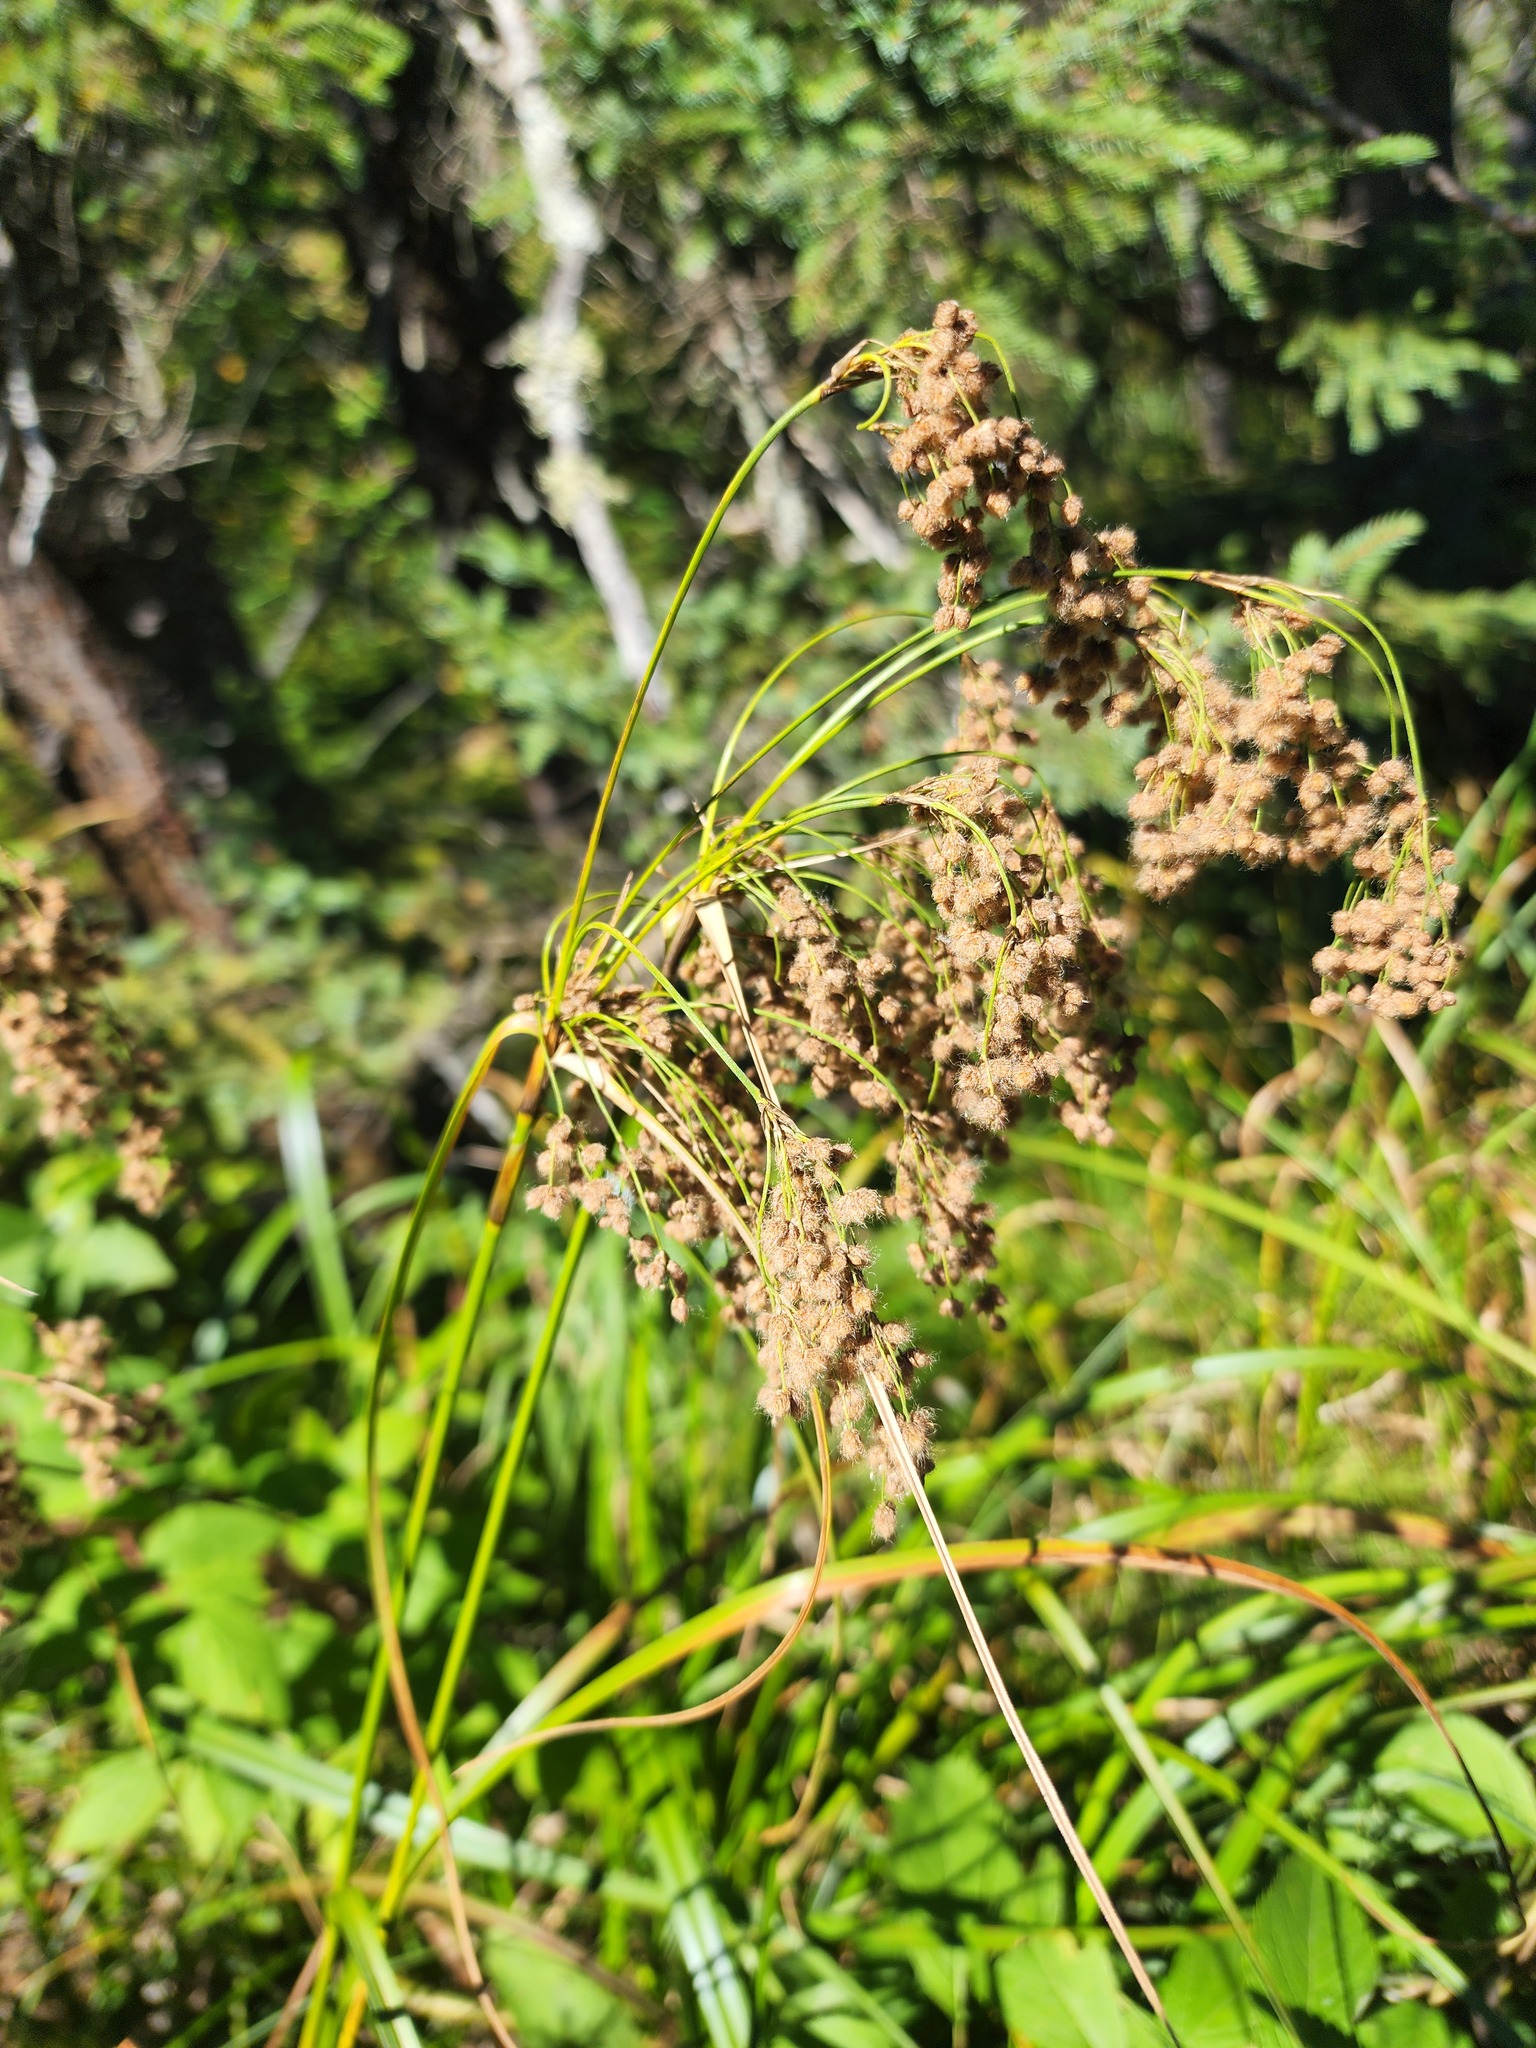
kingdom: Plantae
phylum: Tracheophyta
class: Liliopsida
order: Poales
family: Cyperaceae
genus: Scirpus
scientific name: Scirpus cyperinus
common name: Black-sheathed bulrush
